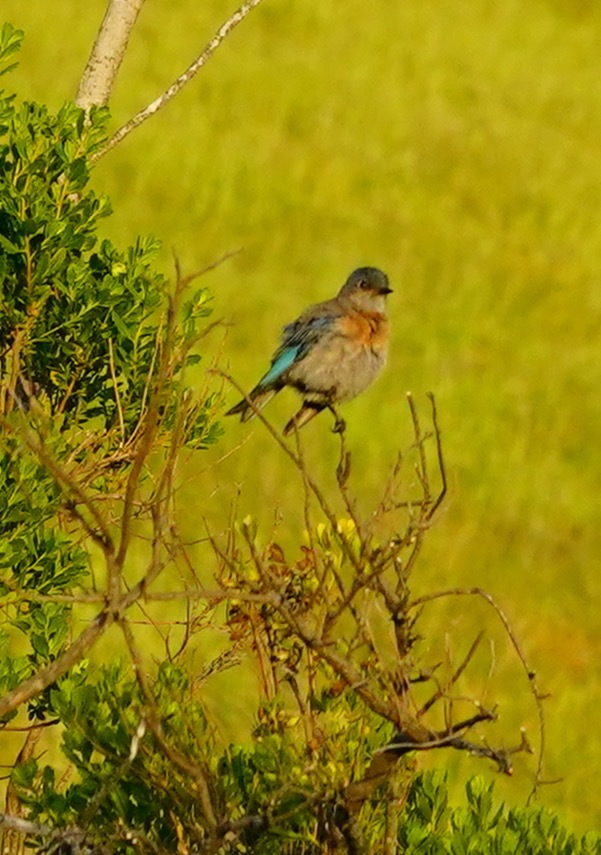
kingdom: Animalia
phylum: Chordata
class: Aves
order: Passeriformes
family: Turdidae
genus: Sialia
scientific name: Sialia mexicana
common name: Western bluebird
